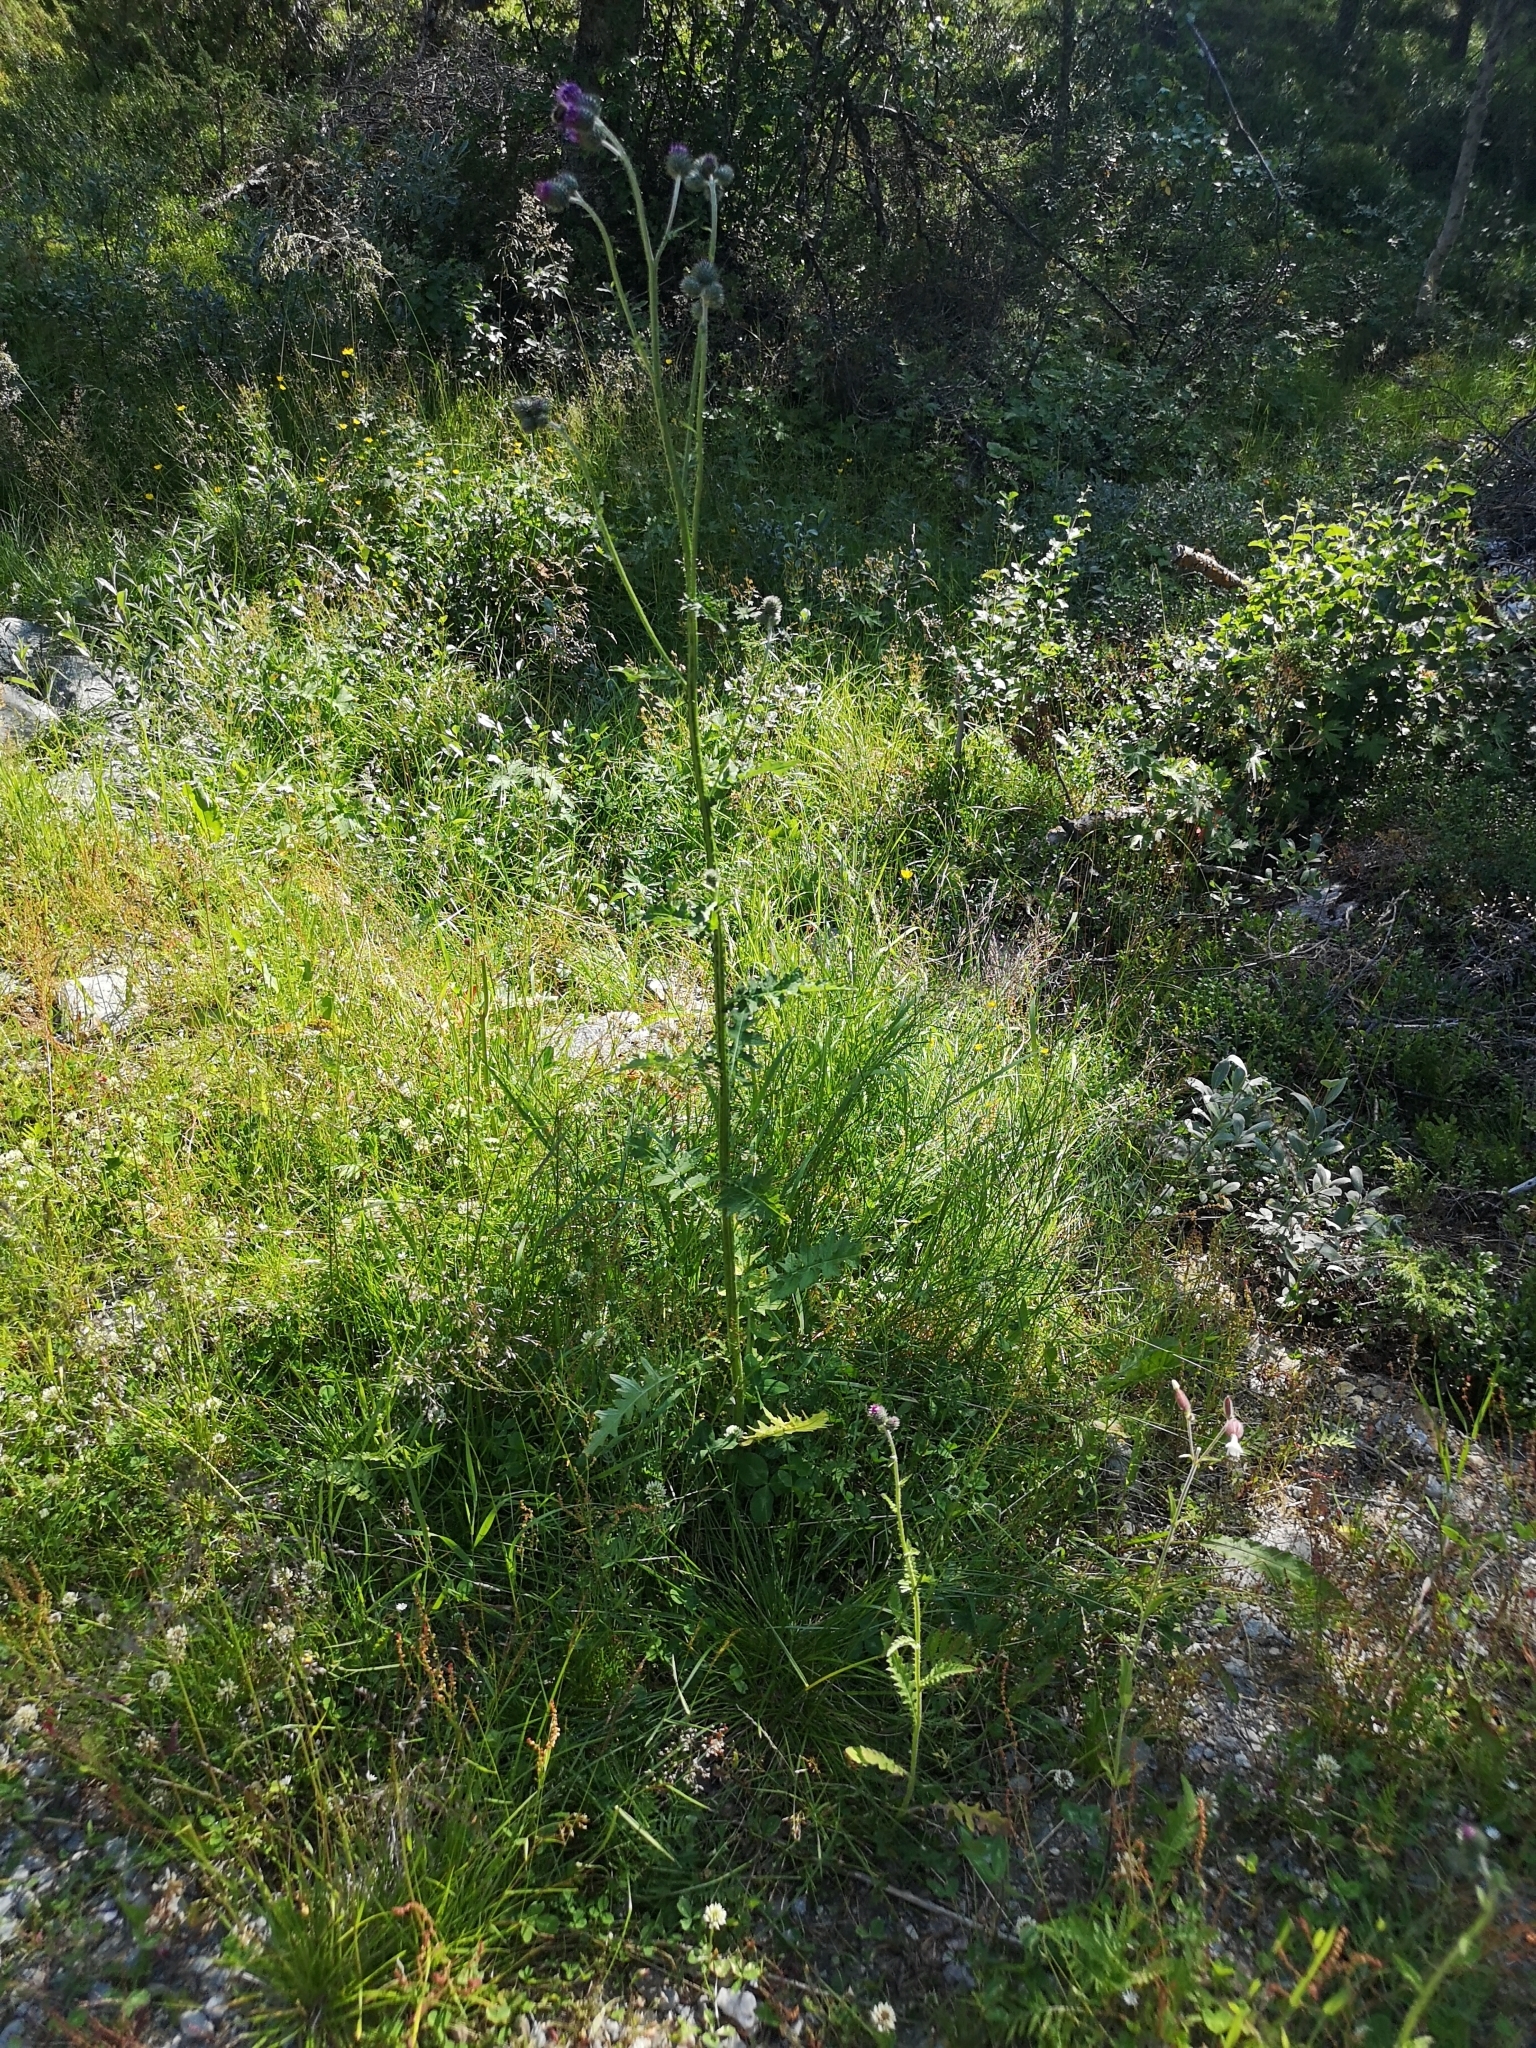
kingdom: Plantae
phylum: Tracheophyta
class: Magnoliopsida
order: Asterales
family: Asteraceae
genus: Carduus
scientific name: Carduus crispus
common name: Welted thistle
